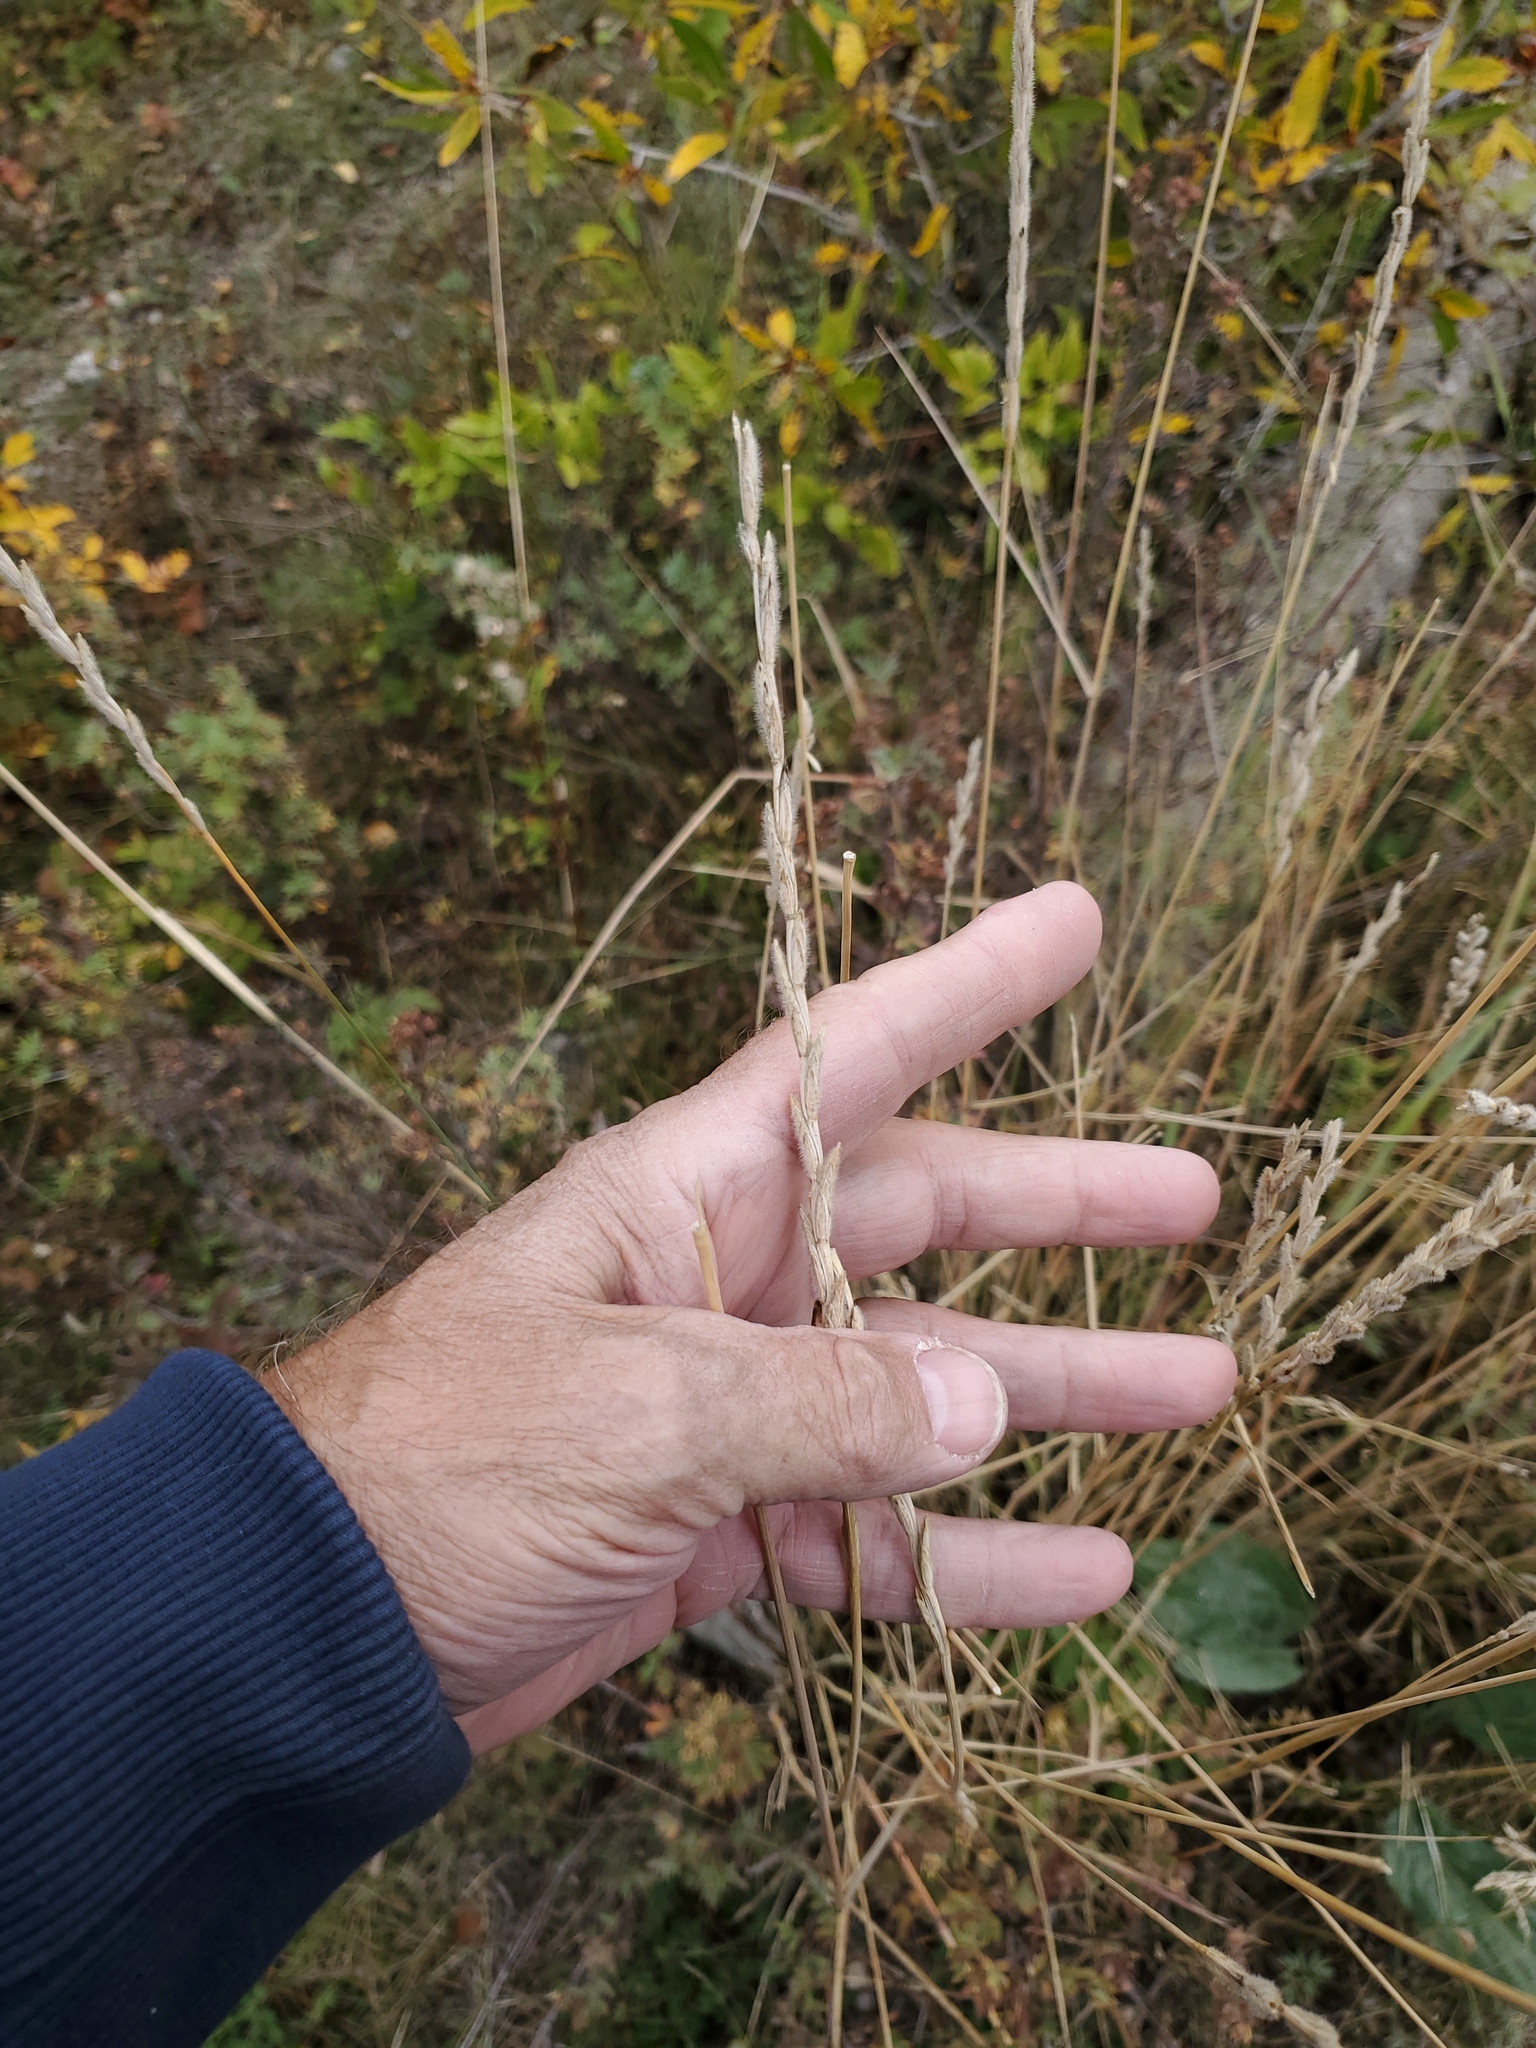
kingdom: Plantae
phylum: Tracheophyta
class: Liliopsida
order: Poales
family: Poaceae
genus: Thinopyrum
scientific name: Thinopyrum intermedium
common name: Intermediate wheatgrass
